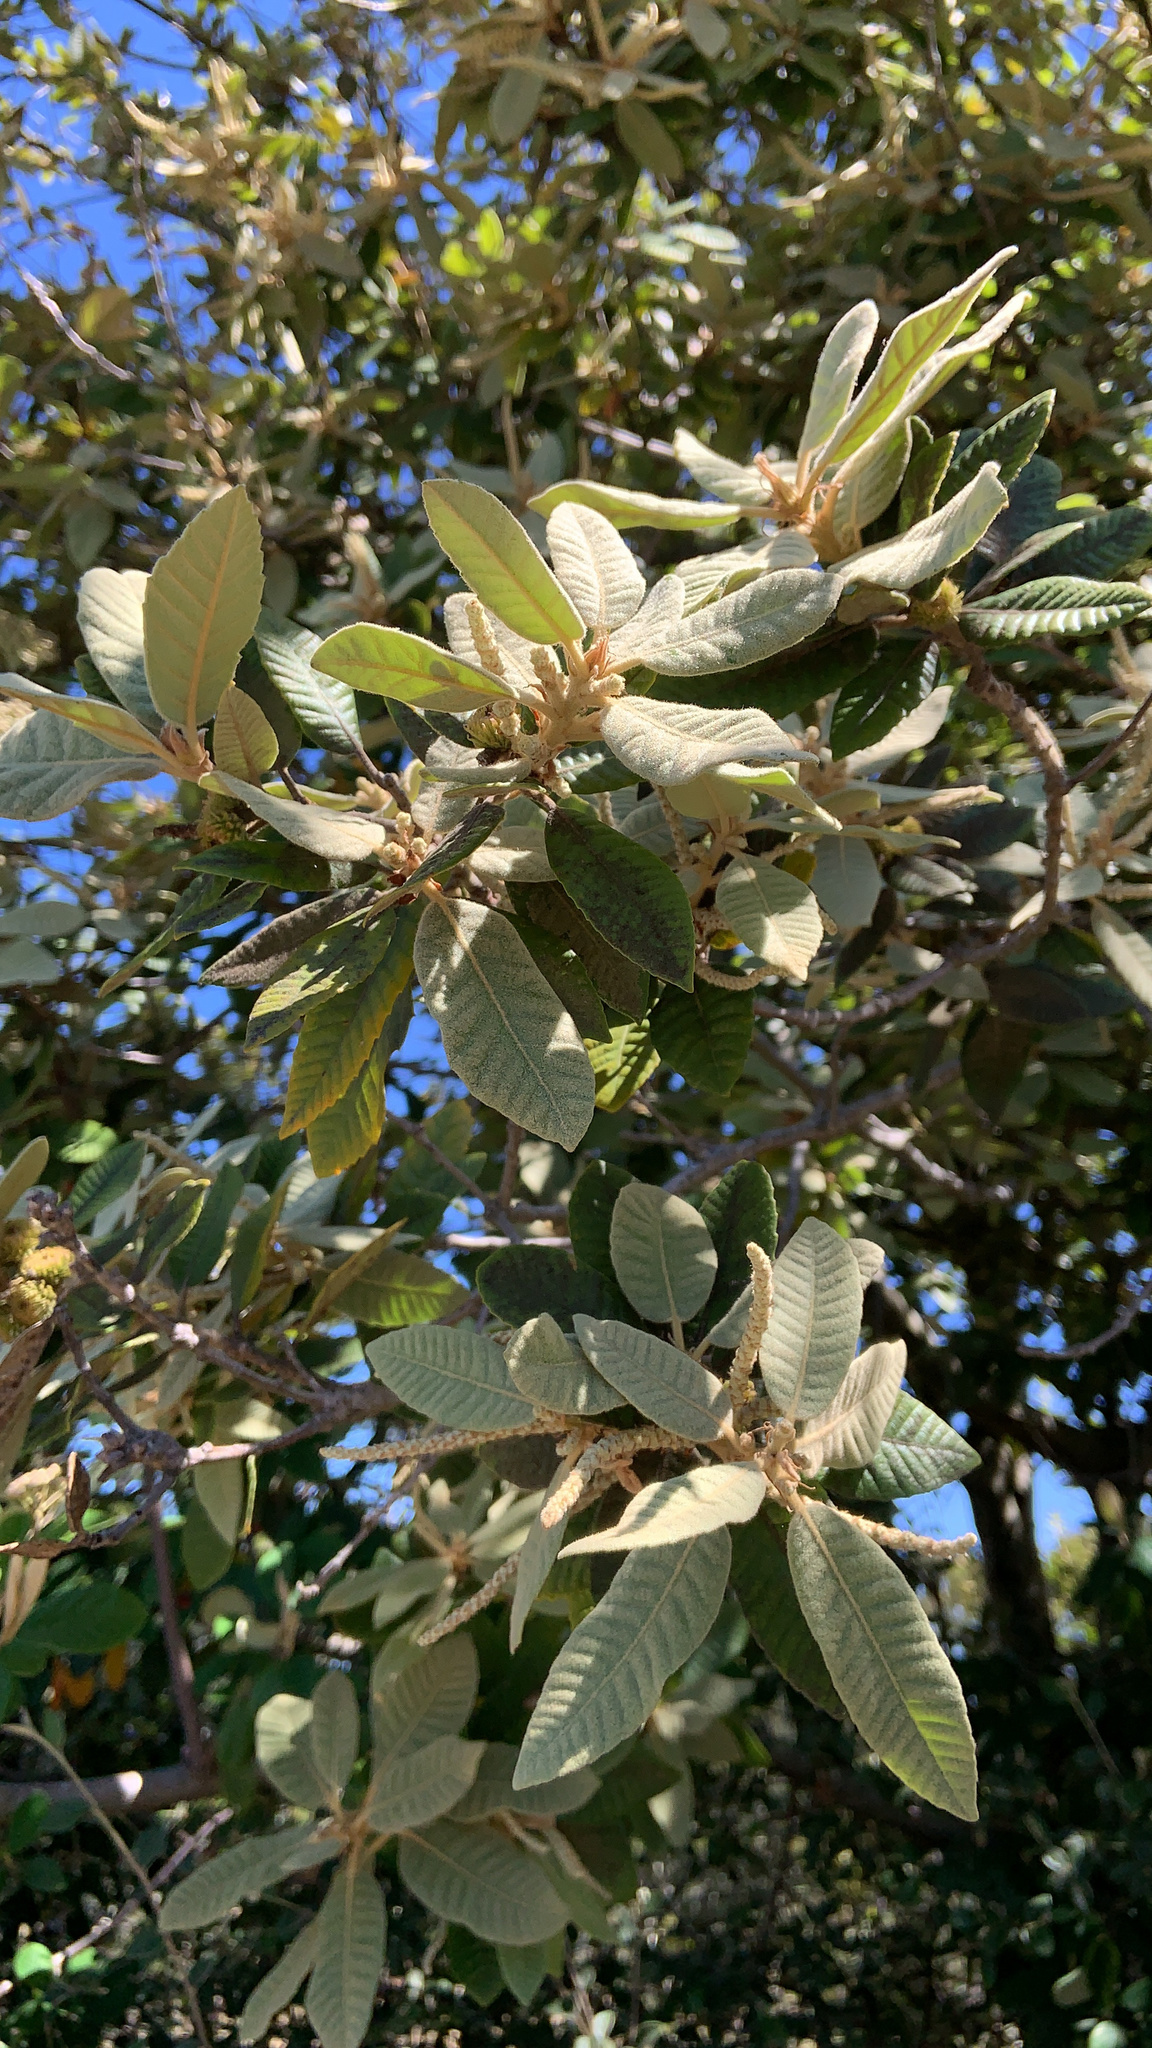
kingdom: Plantae
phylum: Tracheophyta
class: Magnoliopsida
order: Fagales
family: Fagaceae
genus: Notholithocarpus
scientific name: Notholithocarpus densiflorus
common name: Tan bark oak
